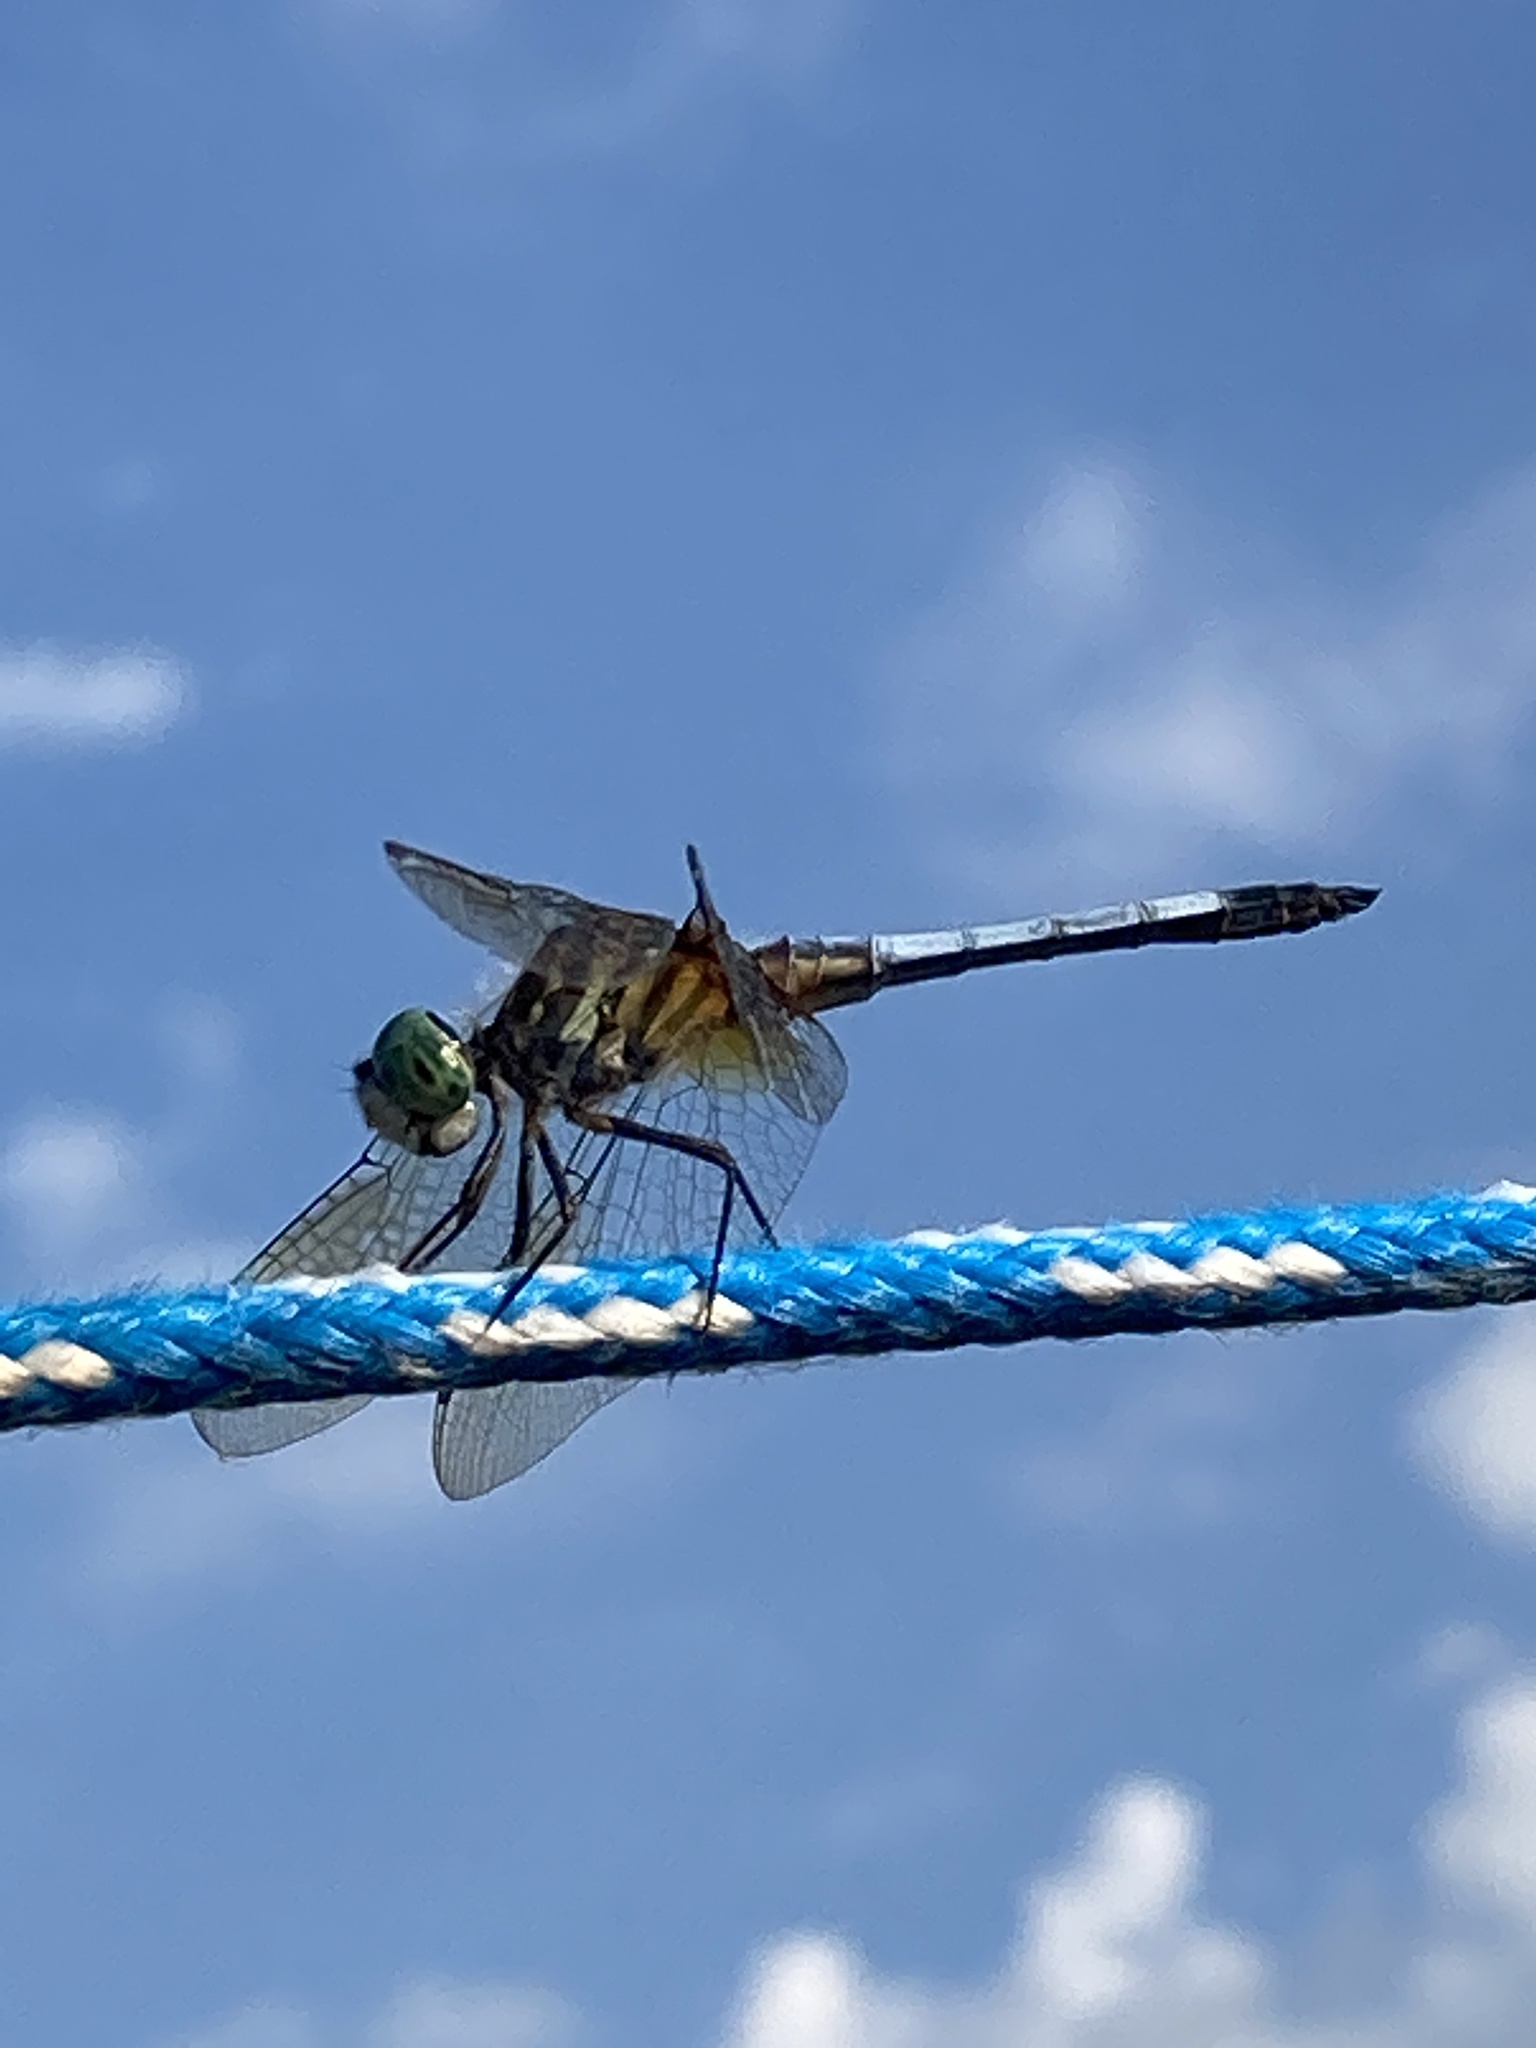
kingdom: Animalia
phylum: Arthropoda
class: Insecta
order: Odonata
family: Libellulidae
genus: Pachydiplax
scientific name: Pachydiplax longipennis
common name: Blue dasher
